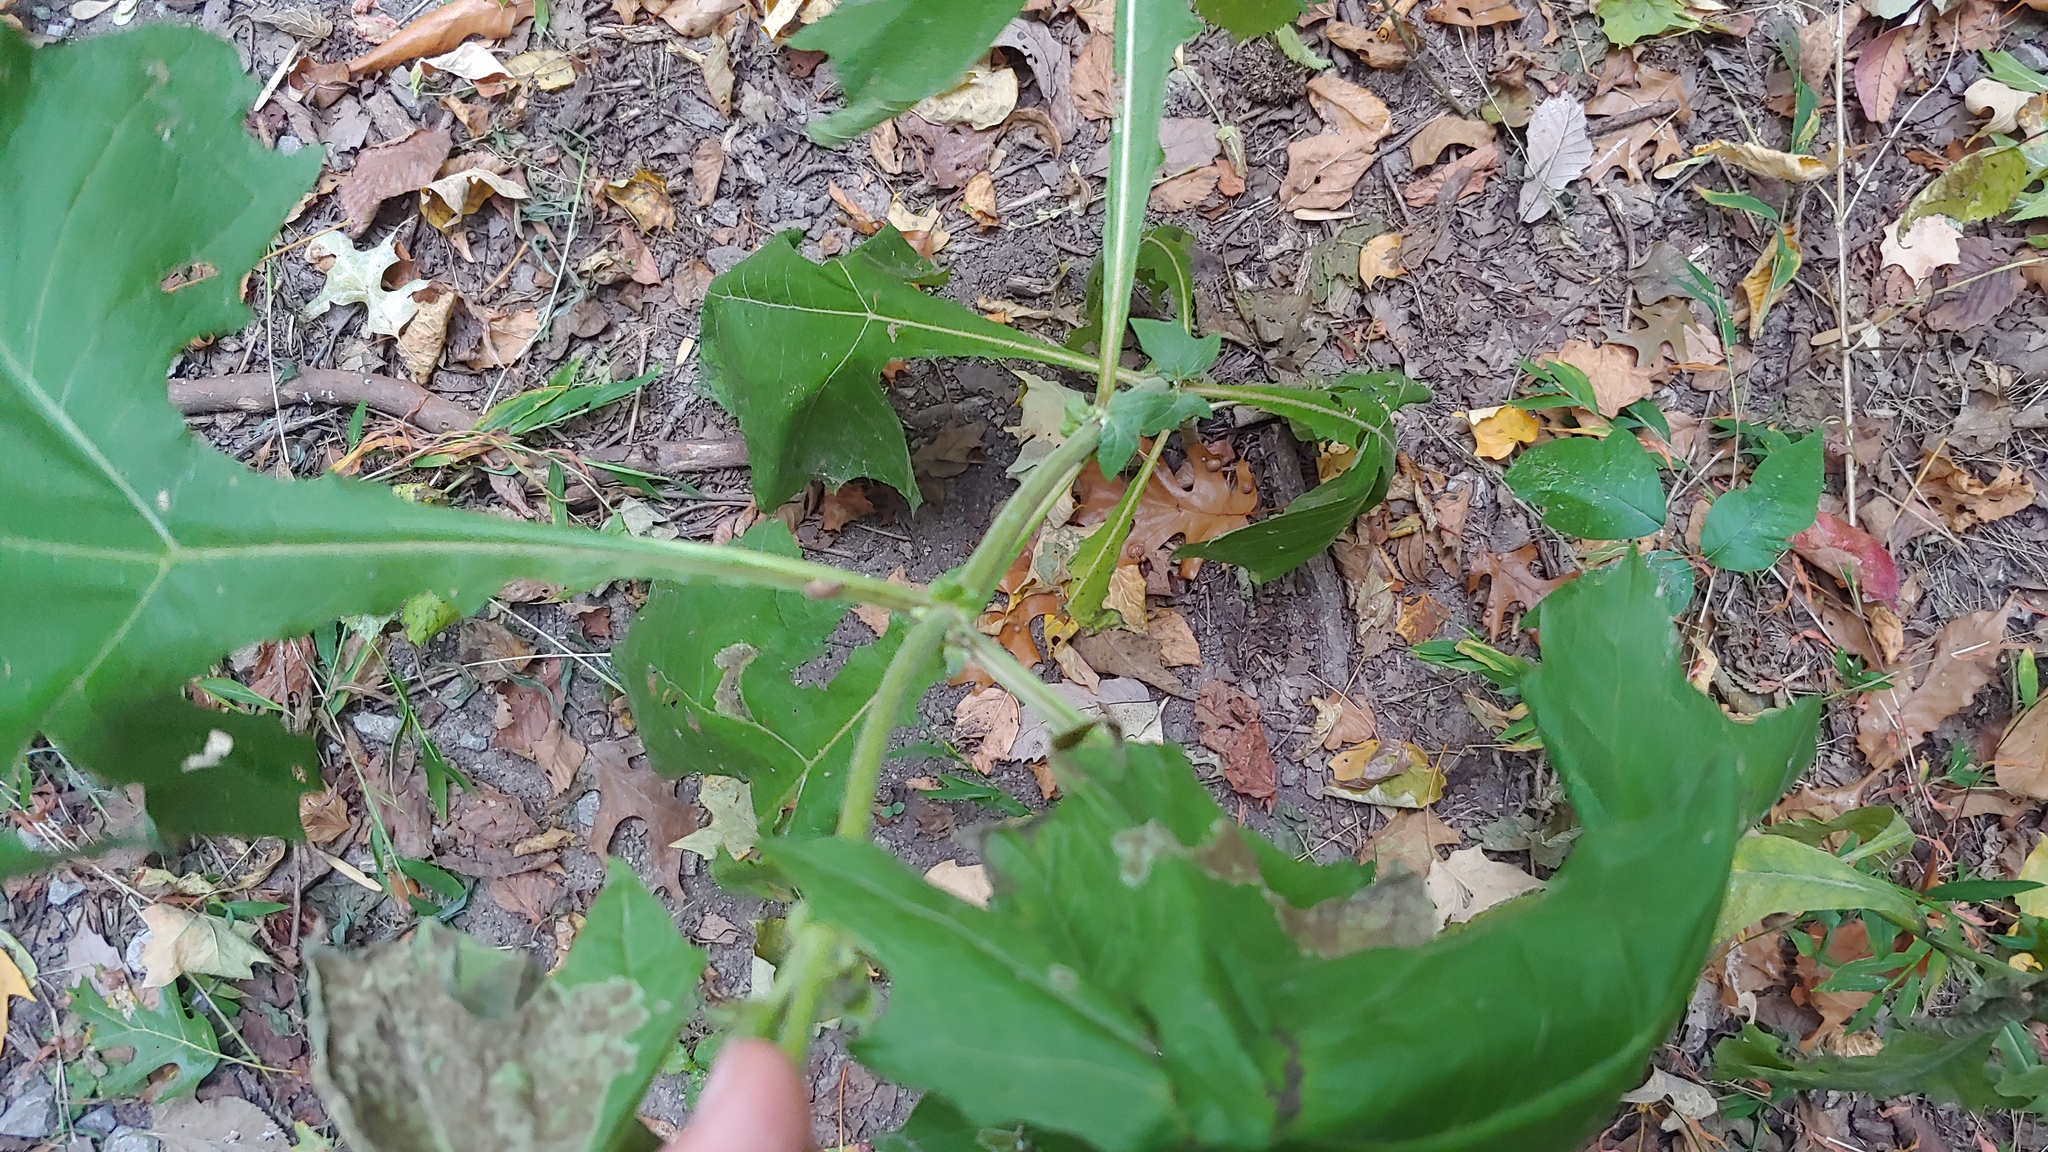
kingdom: Plantae
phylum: Tracheophyta
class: Magnoliopsida
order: Asterales
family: Asteraceae
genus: Smallanthus
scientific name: Smallanthus uvedalia
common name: Bear's-foot
